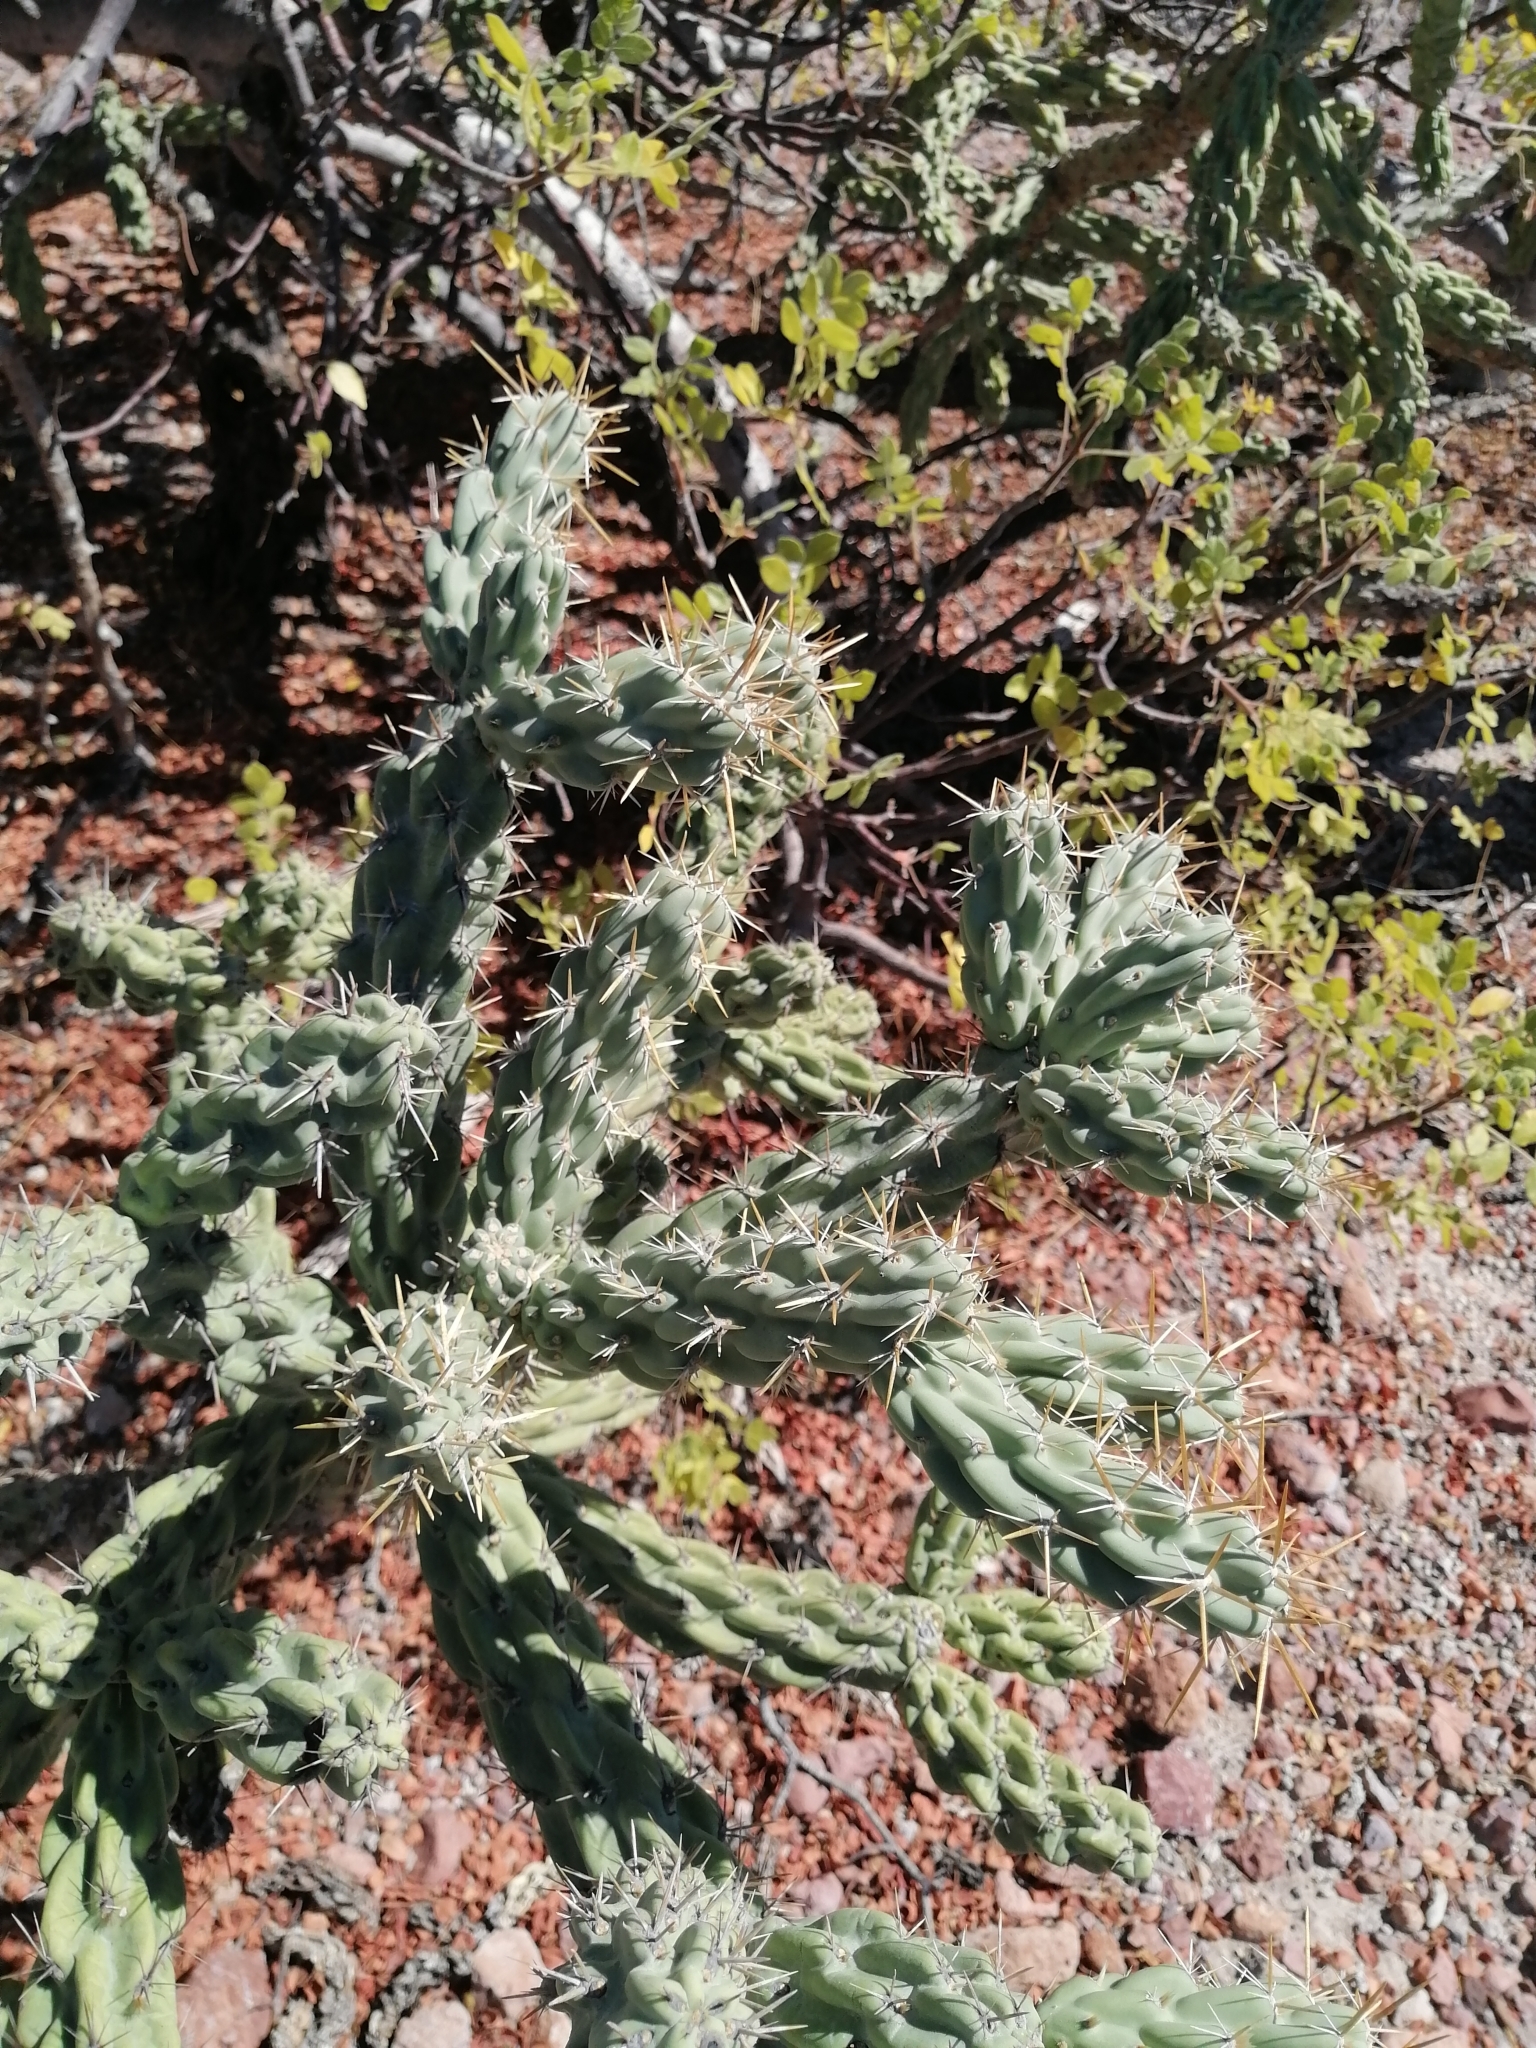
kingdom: Plantae
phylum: Tracheophyta
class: Magnoliopsida
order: Caryophyllales
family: Cactaceae
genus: Cylindropuntia
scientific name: Cylindropuntia cholla
